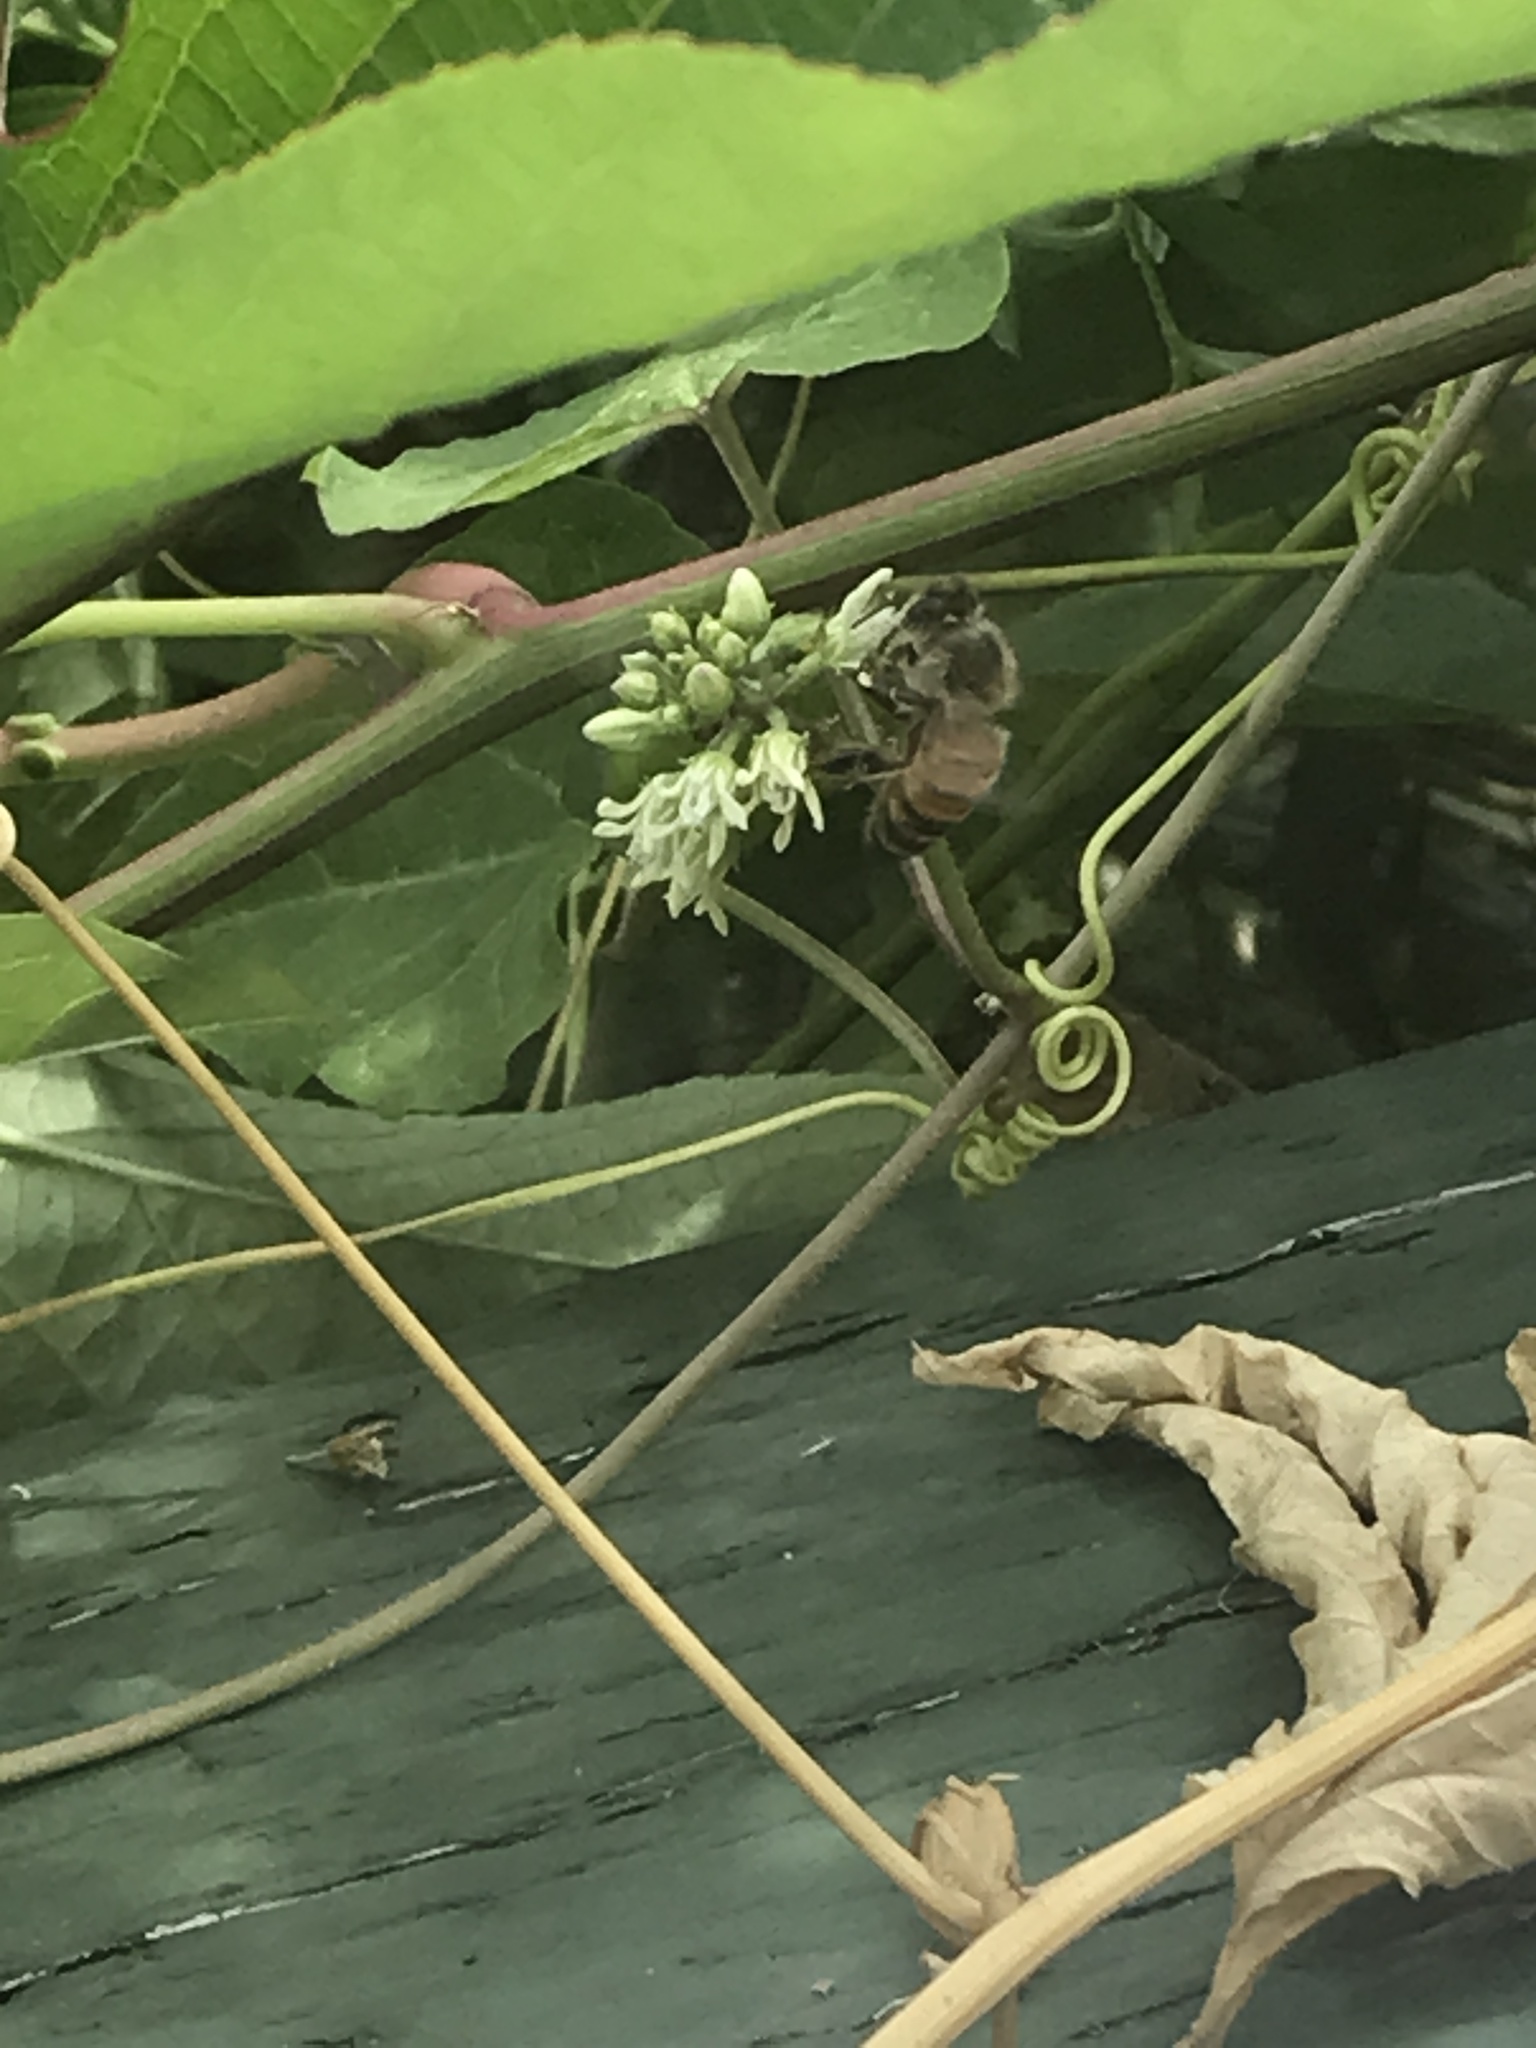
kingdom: Animalia
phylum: Arthropoda
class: Insecta
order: Hymenoptera
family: Apidae
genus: Apis
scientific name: Apis mellifera
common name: Honey bee
